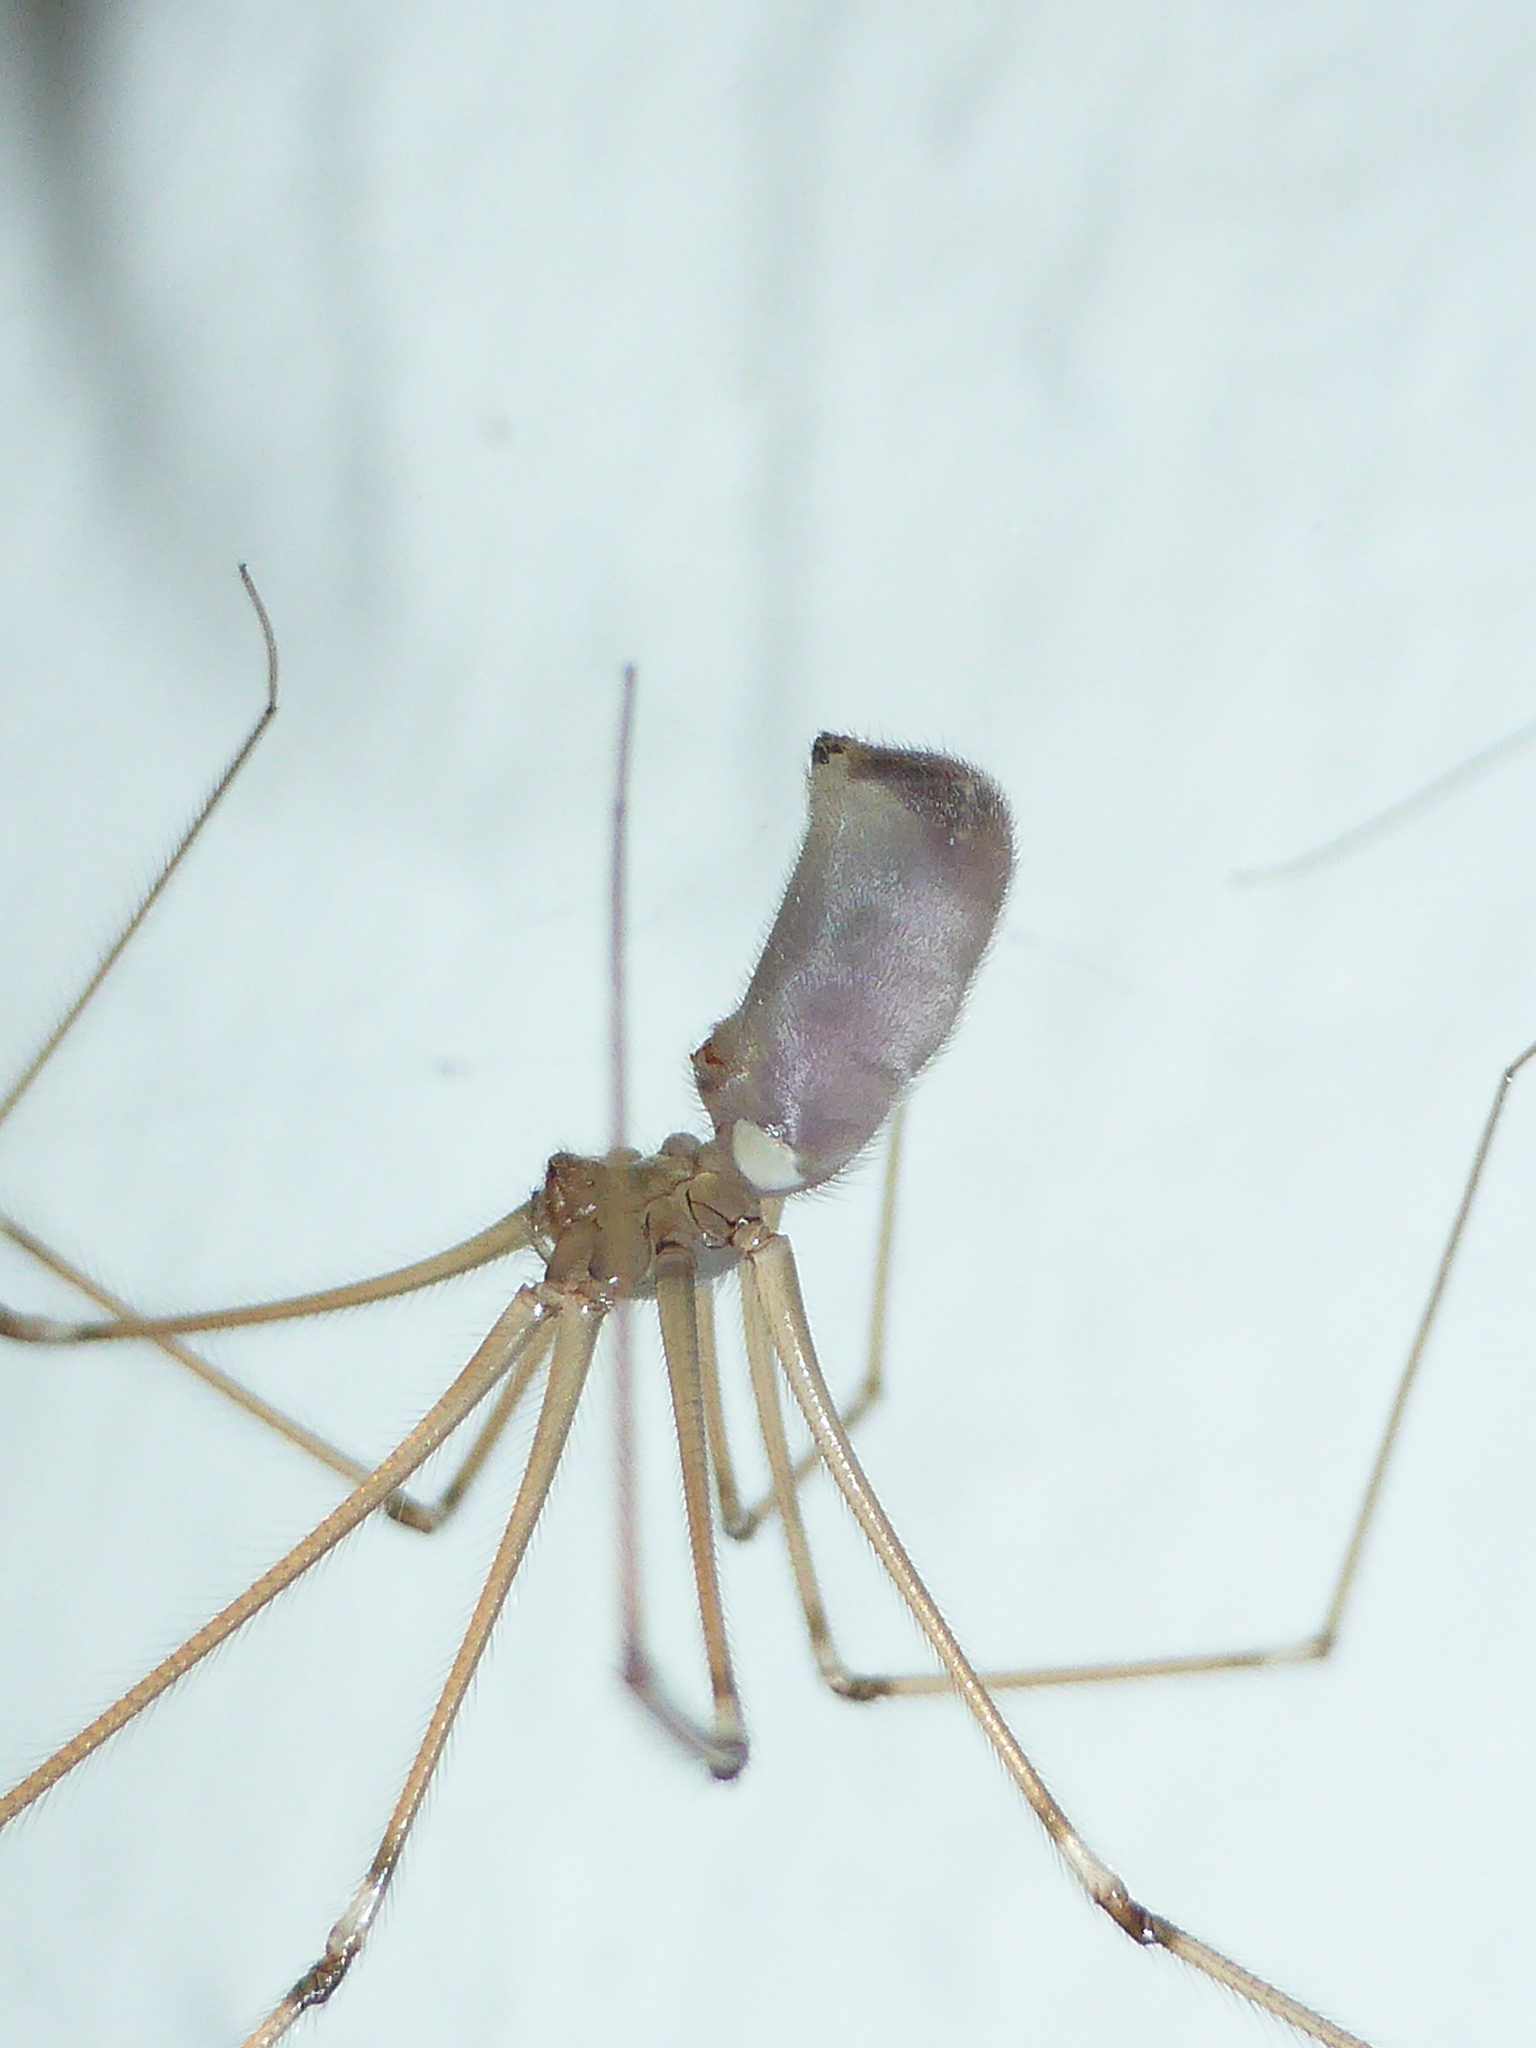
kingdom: Animalia
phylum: Arthropoda
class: Arachnida
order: Araneae
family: Pholcidae
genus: Pholcus
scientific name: Pholcus phalangioides
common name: Longbodied cellar spider
